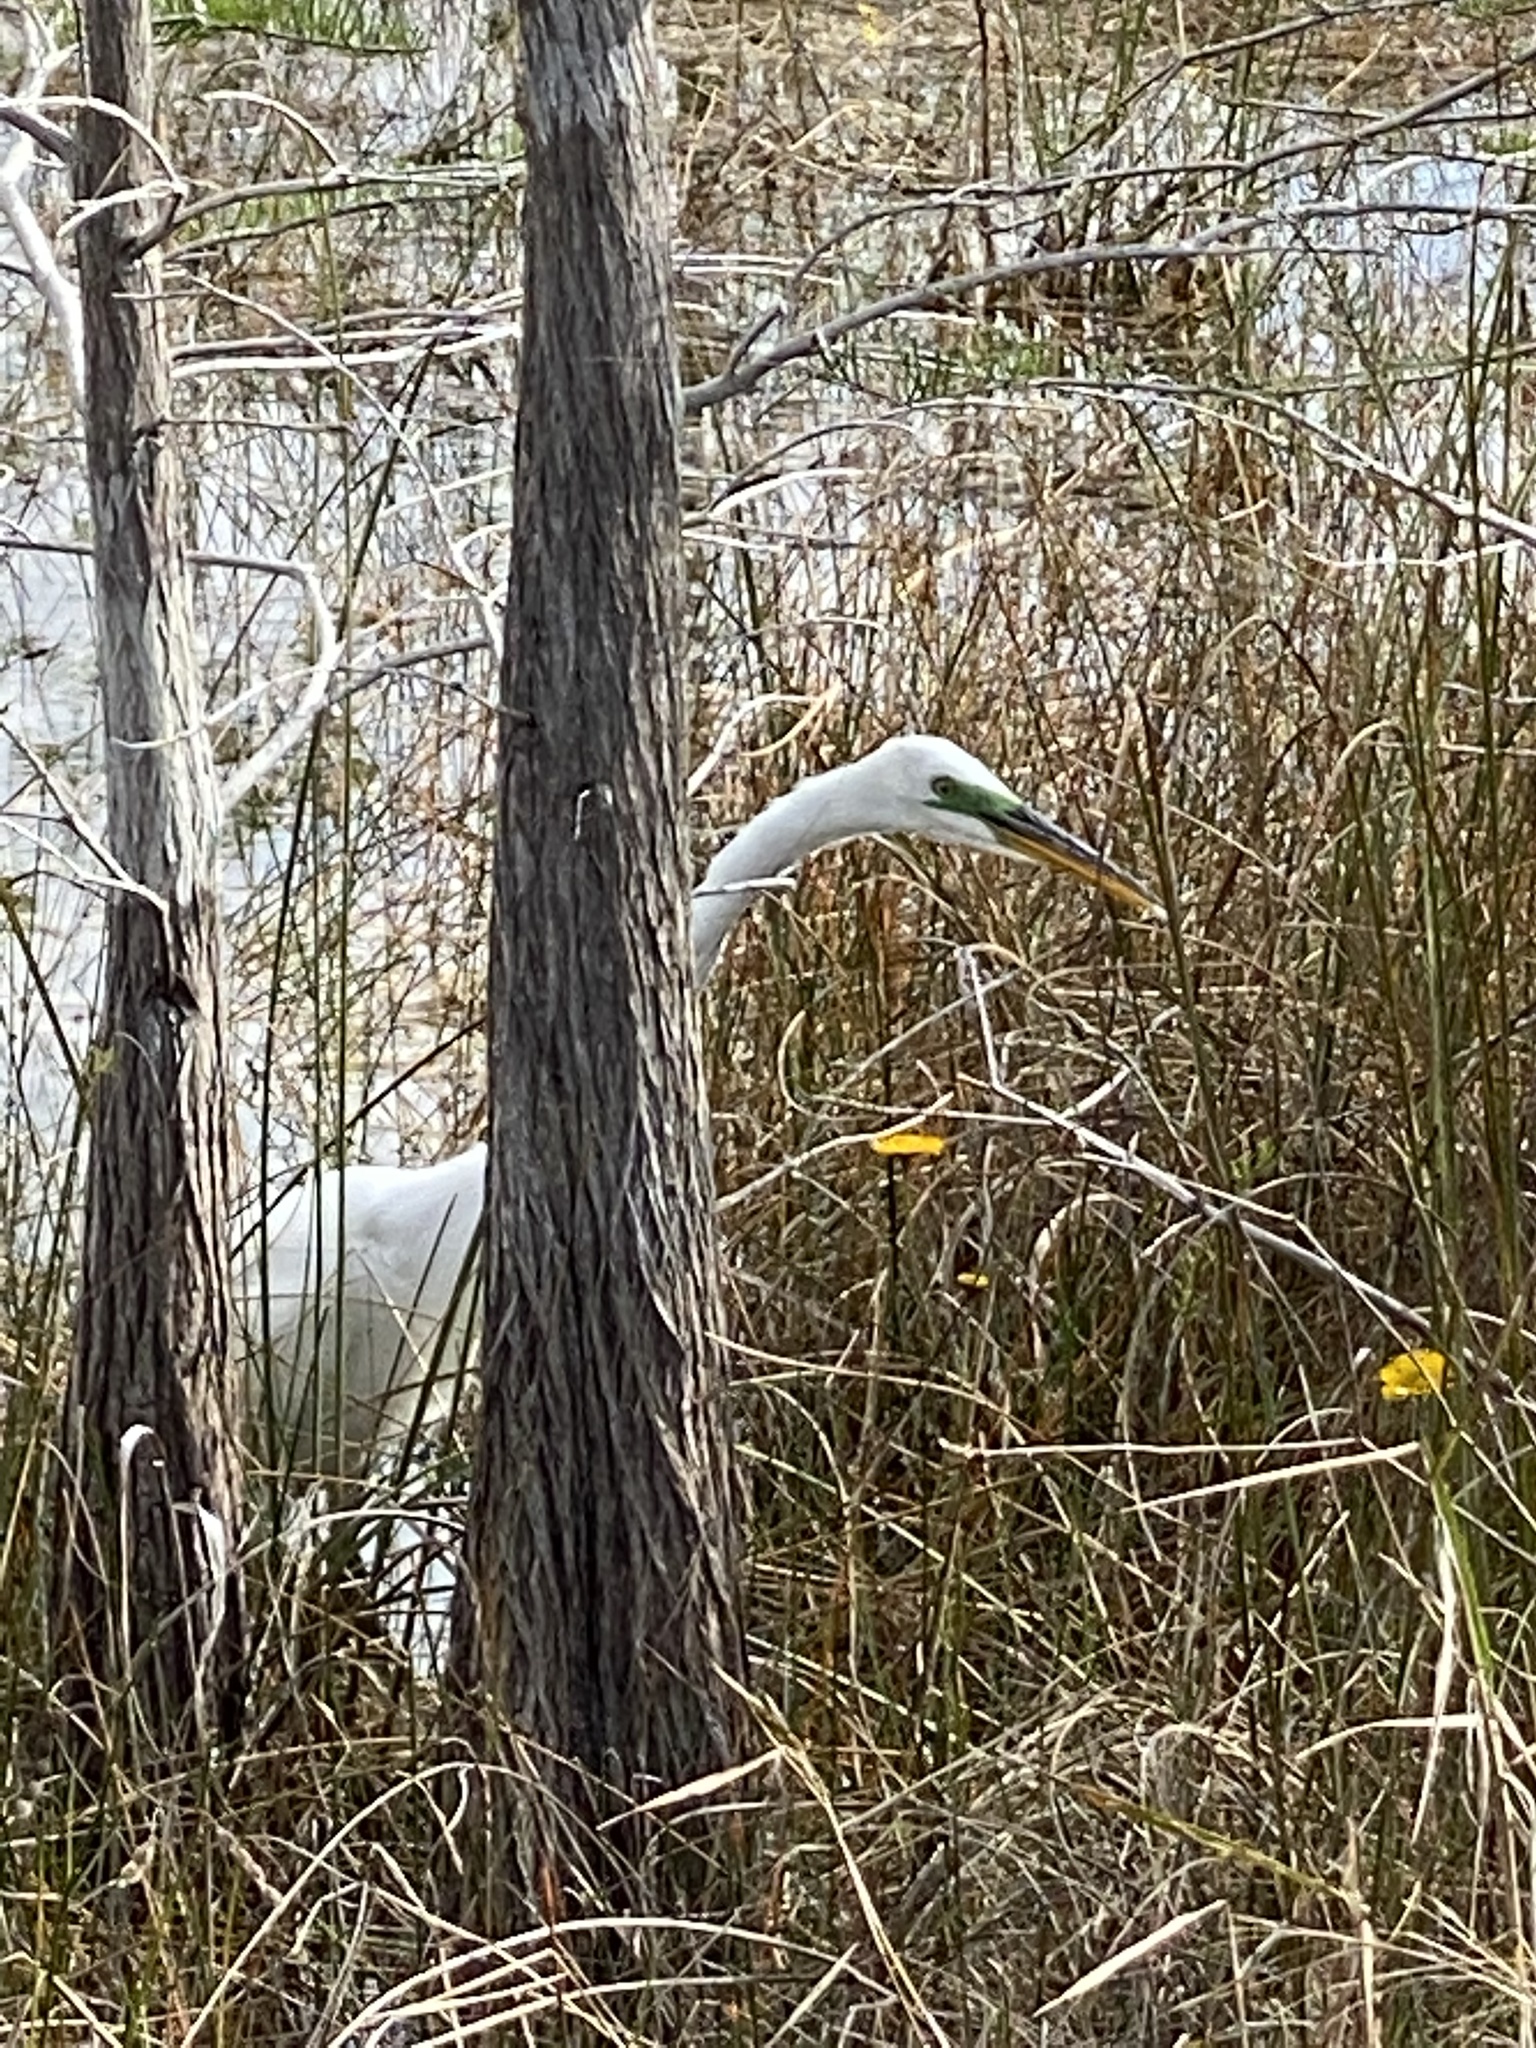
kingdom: Animalia
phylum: Chordata
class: Aves
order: Pelecaniformes
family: Ardeidae
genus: Ardea
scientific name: Ardea alba
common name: Great egret
